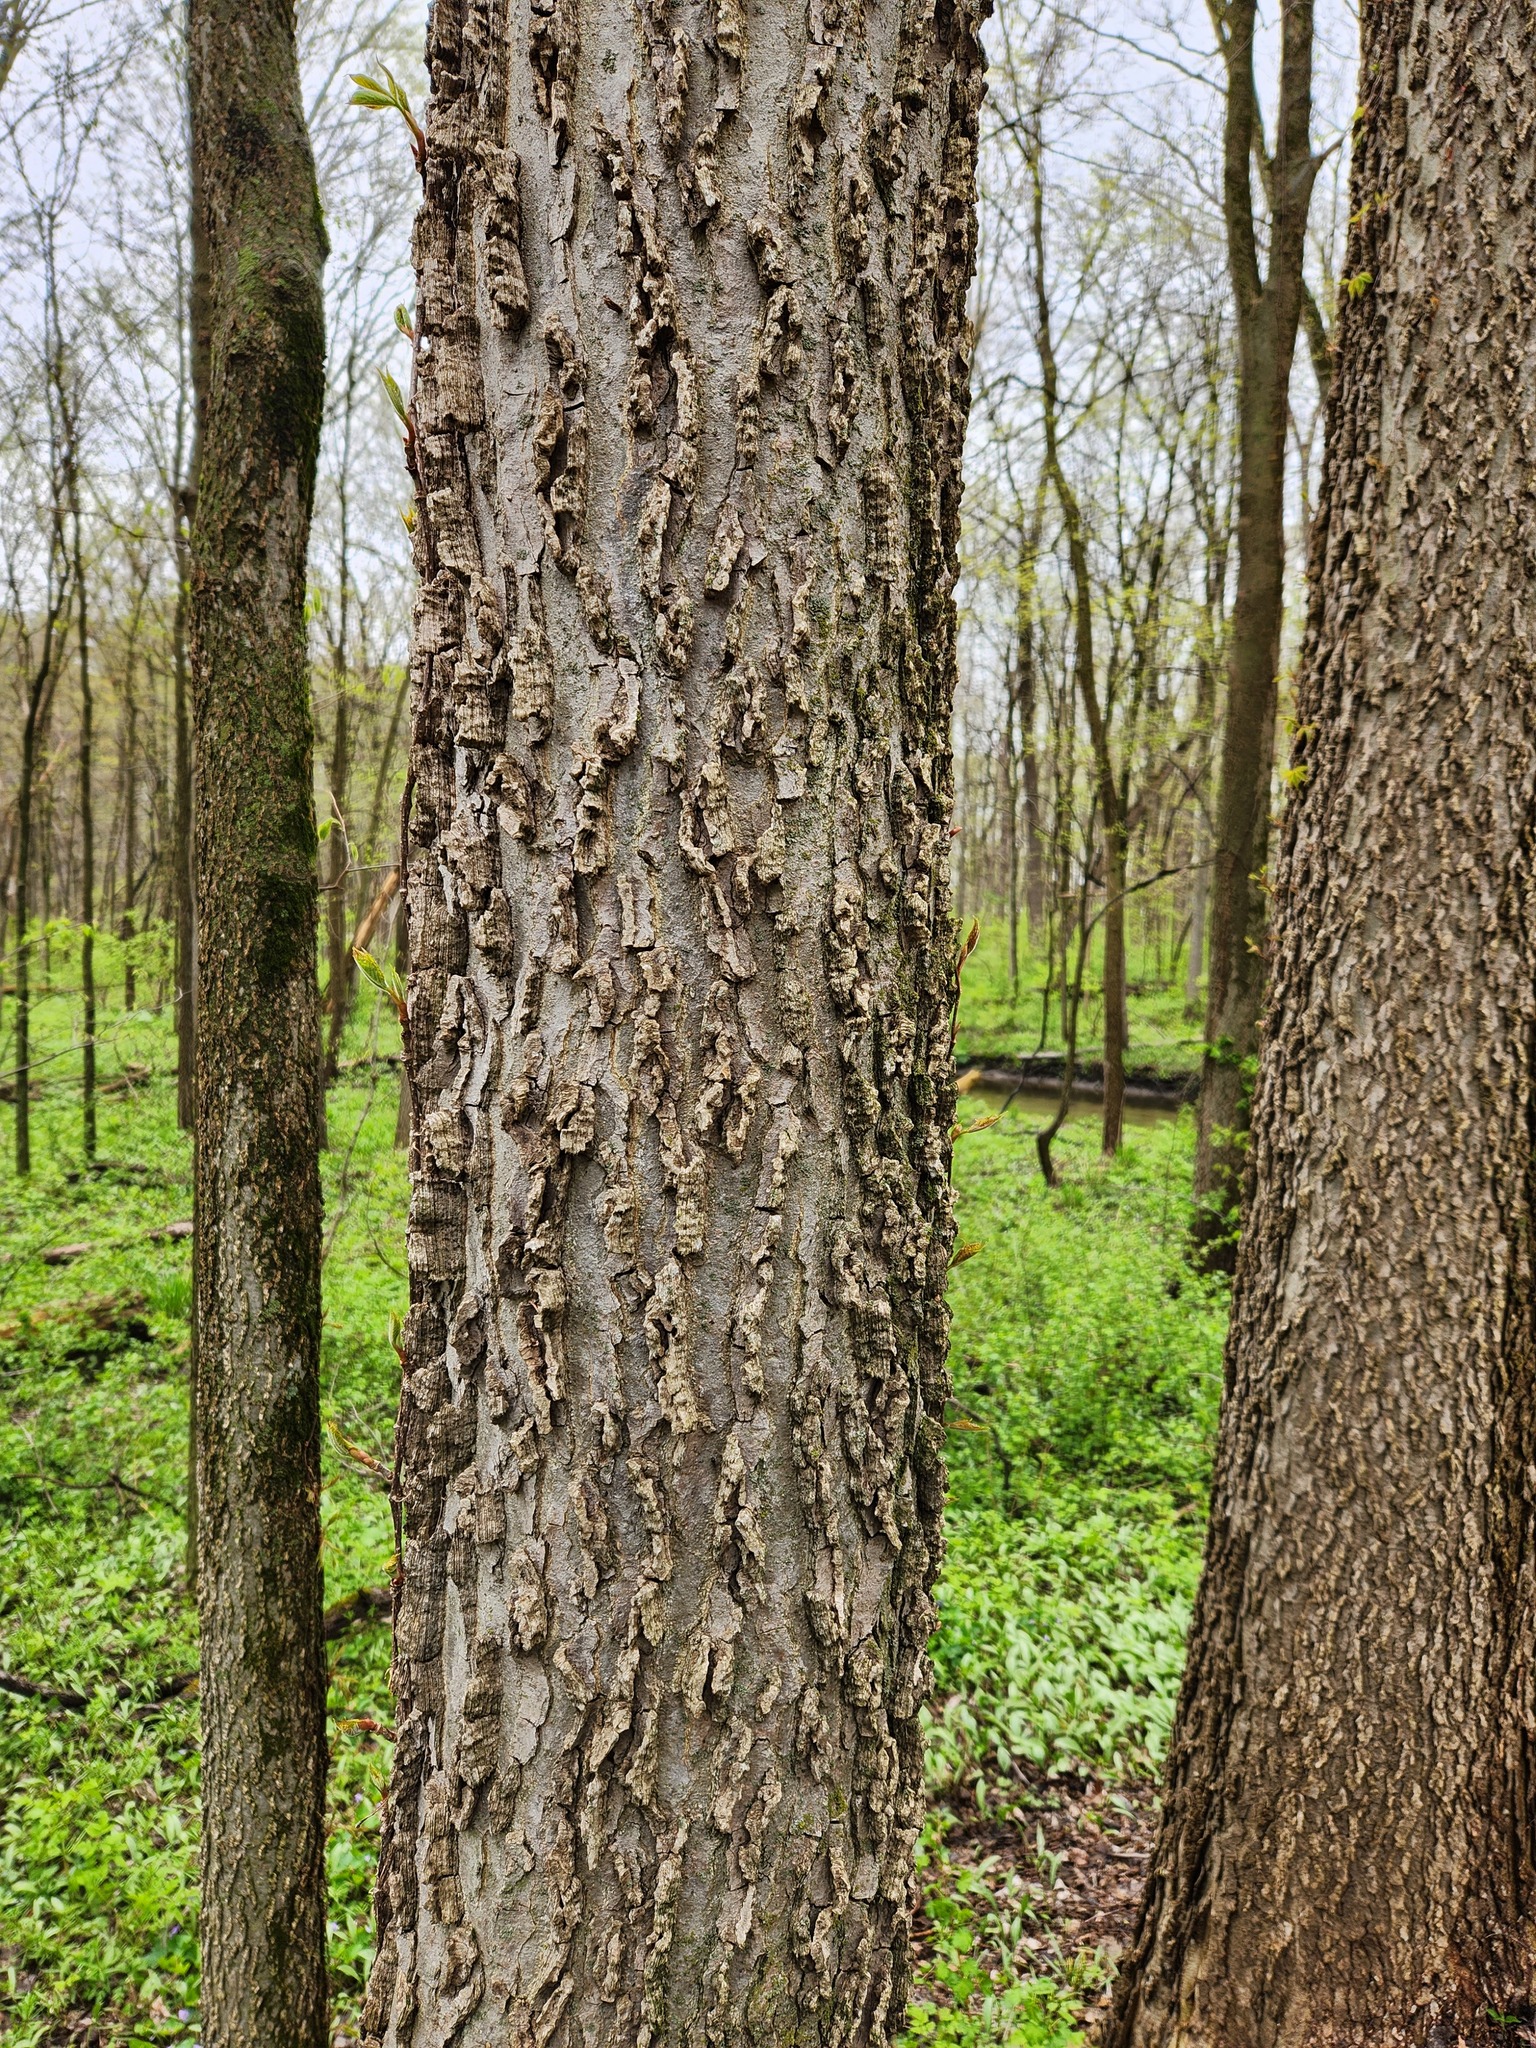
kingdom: Plantae
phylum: Tracheophyta
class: Magnoliopsida
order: Rosales
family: Cannabaceae
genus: Celtis
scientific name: Celtis occidentalis
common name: Common hackberry
